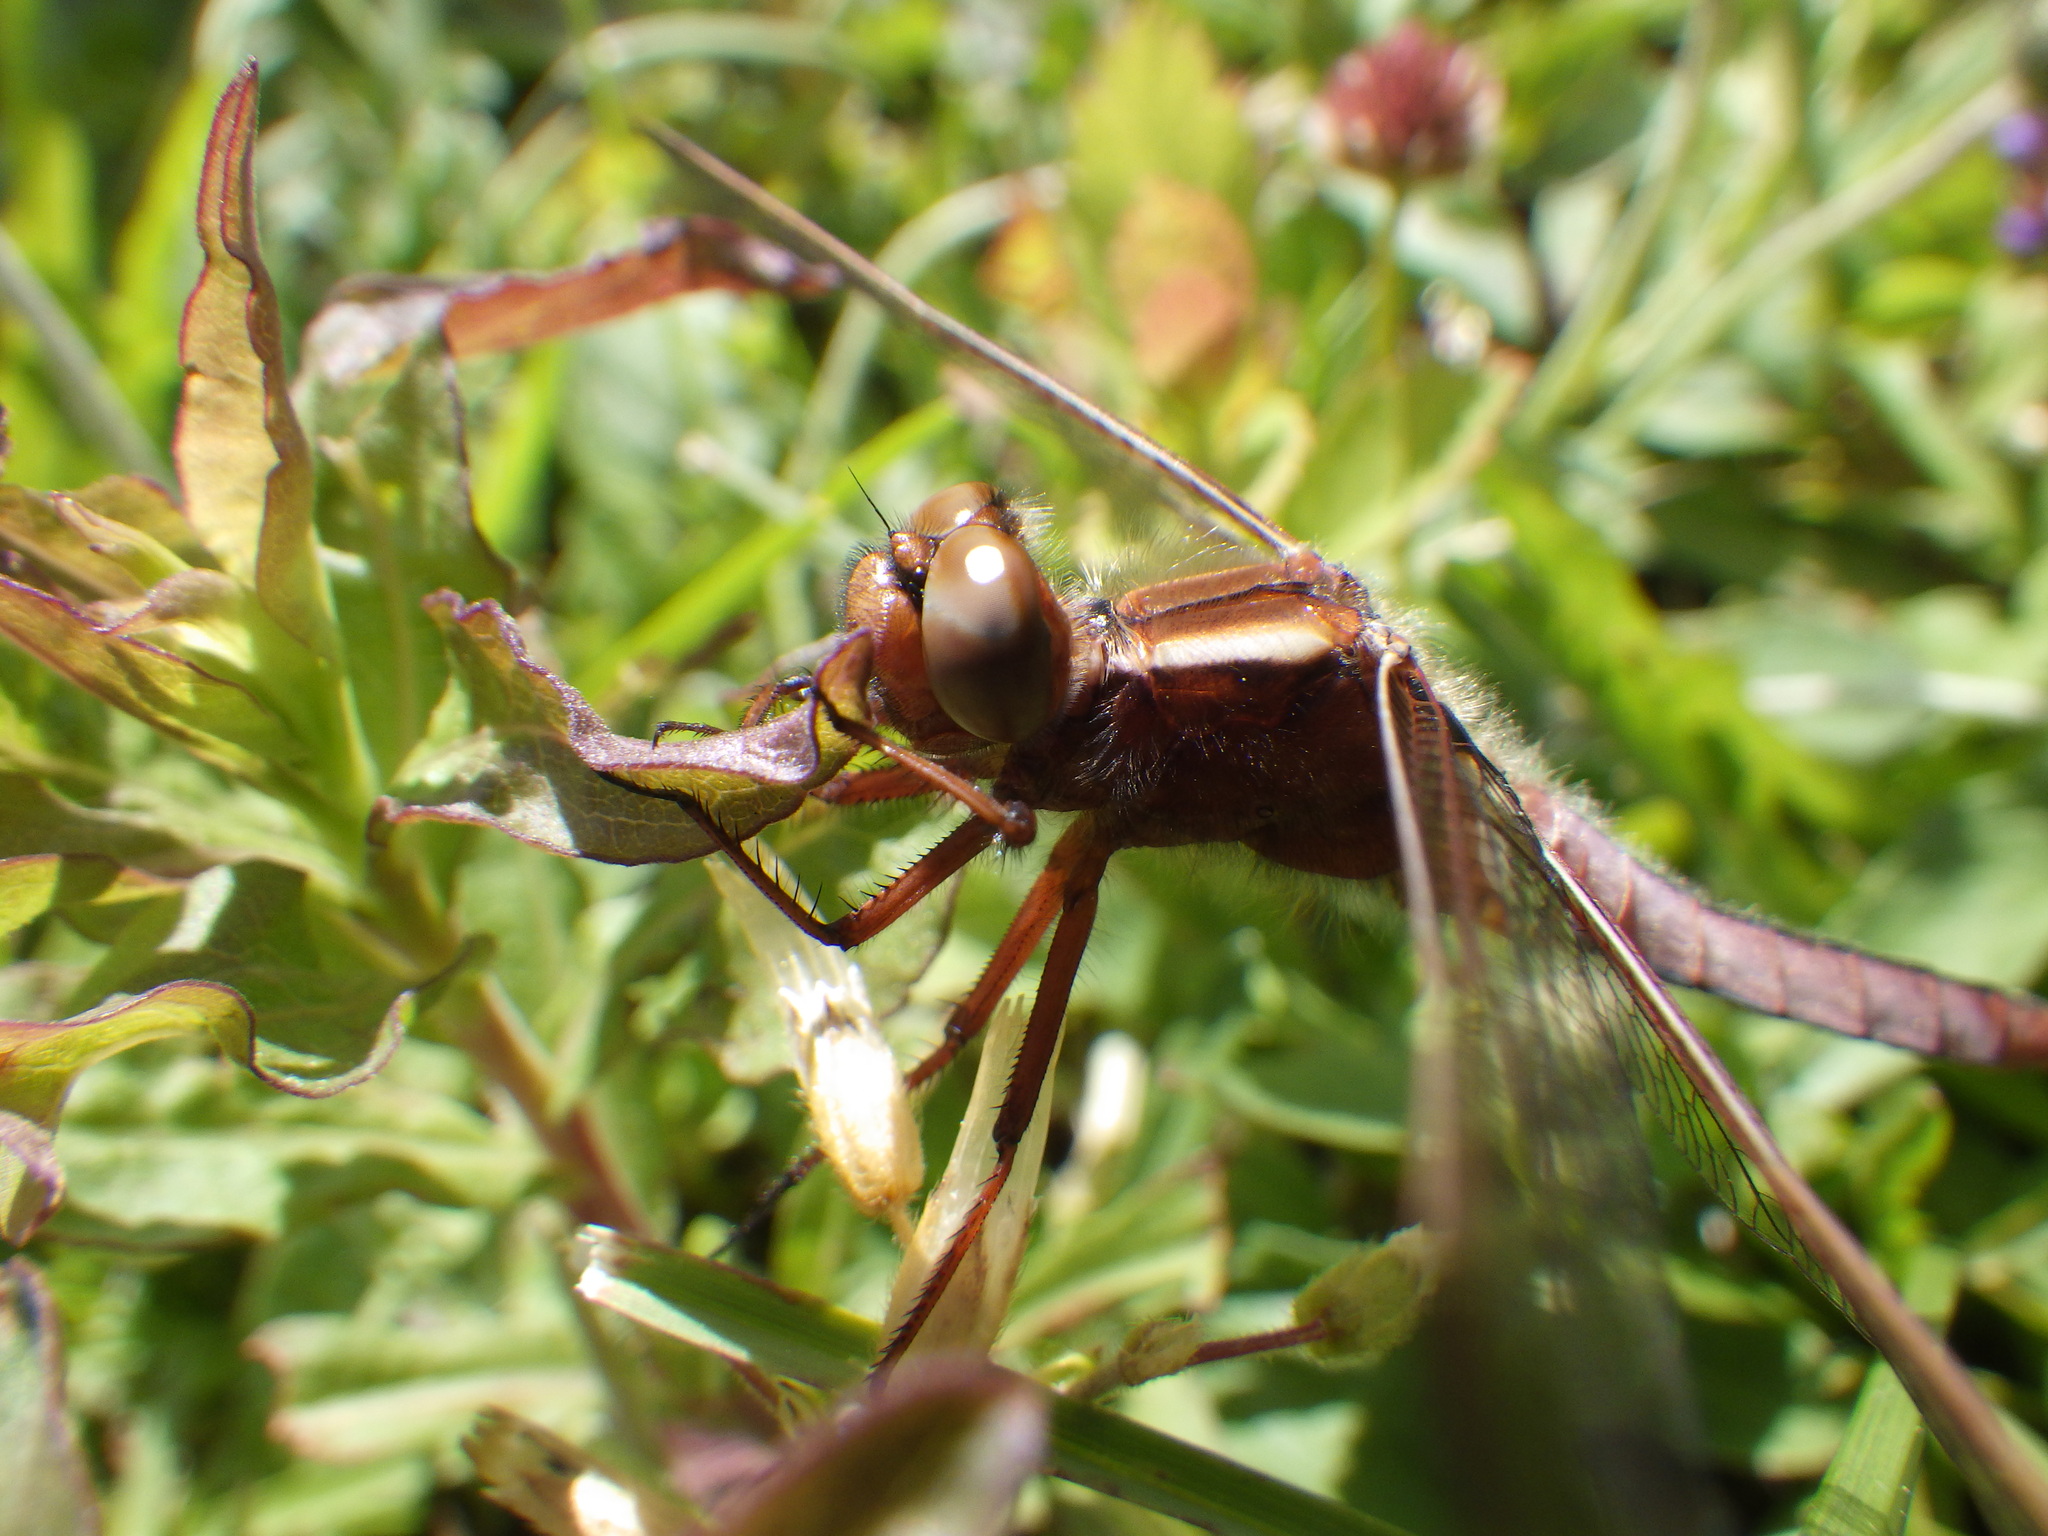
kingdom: Animalia
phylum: Arthropoda
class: Insecta
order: Odonata
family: Libellulidae
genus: Ladona
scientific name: Ladona exusta
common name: Libellule embrasée
